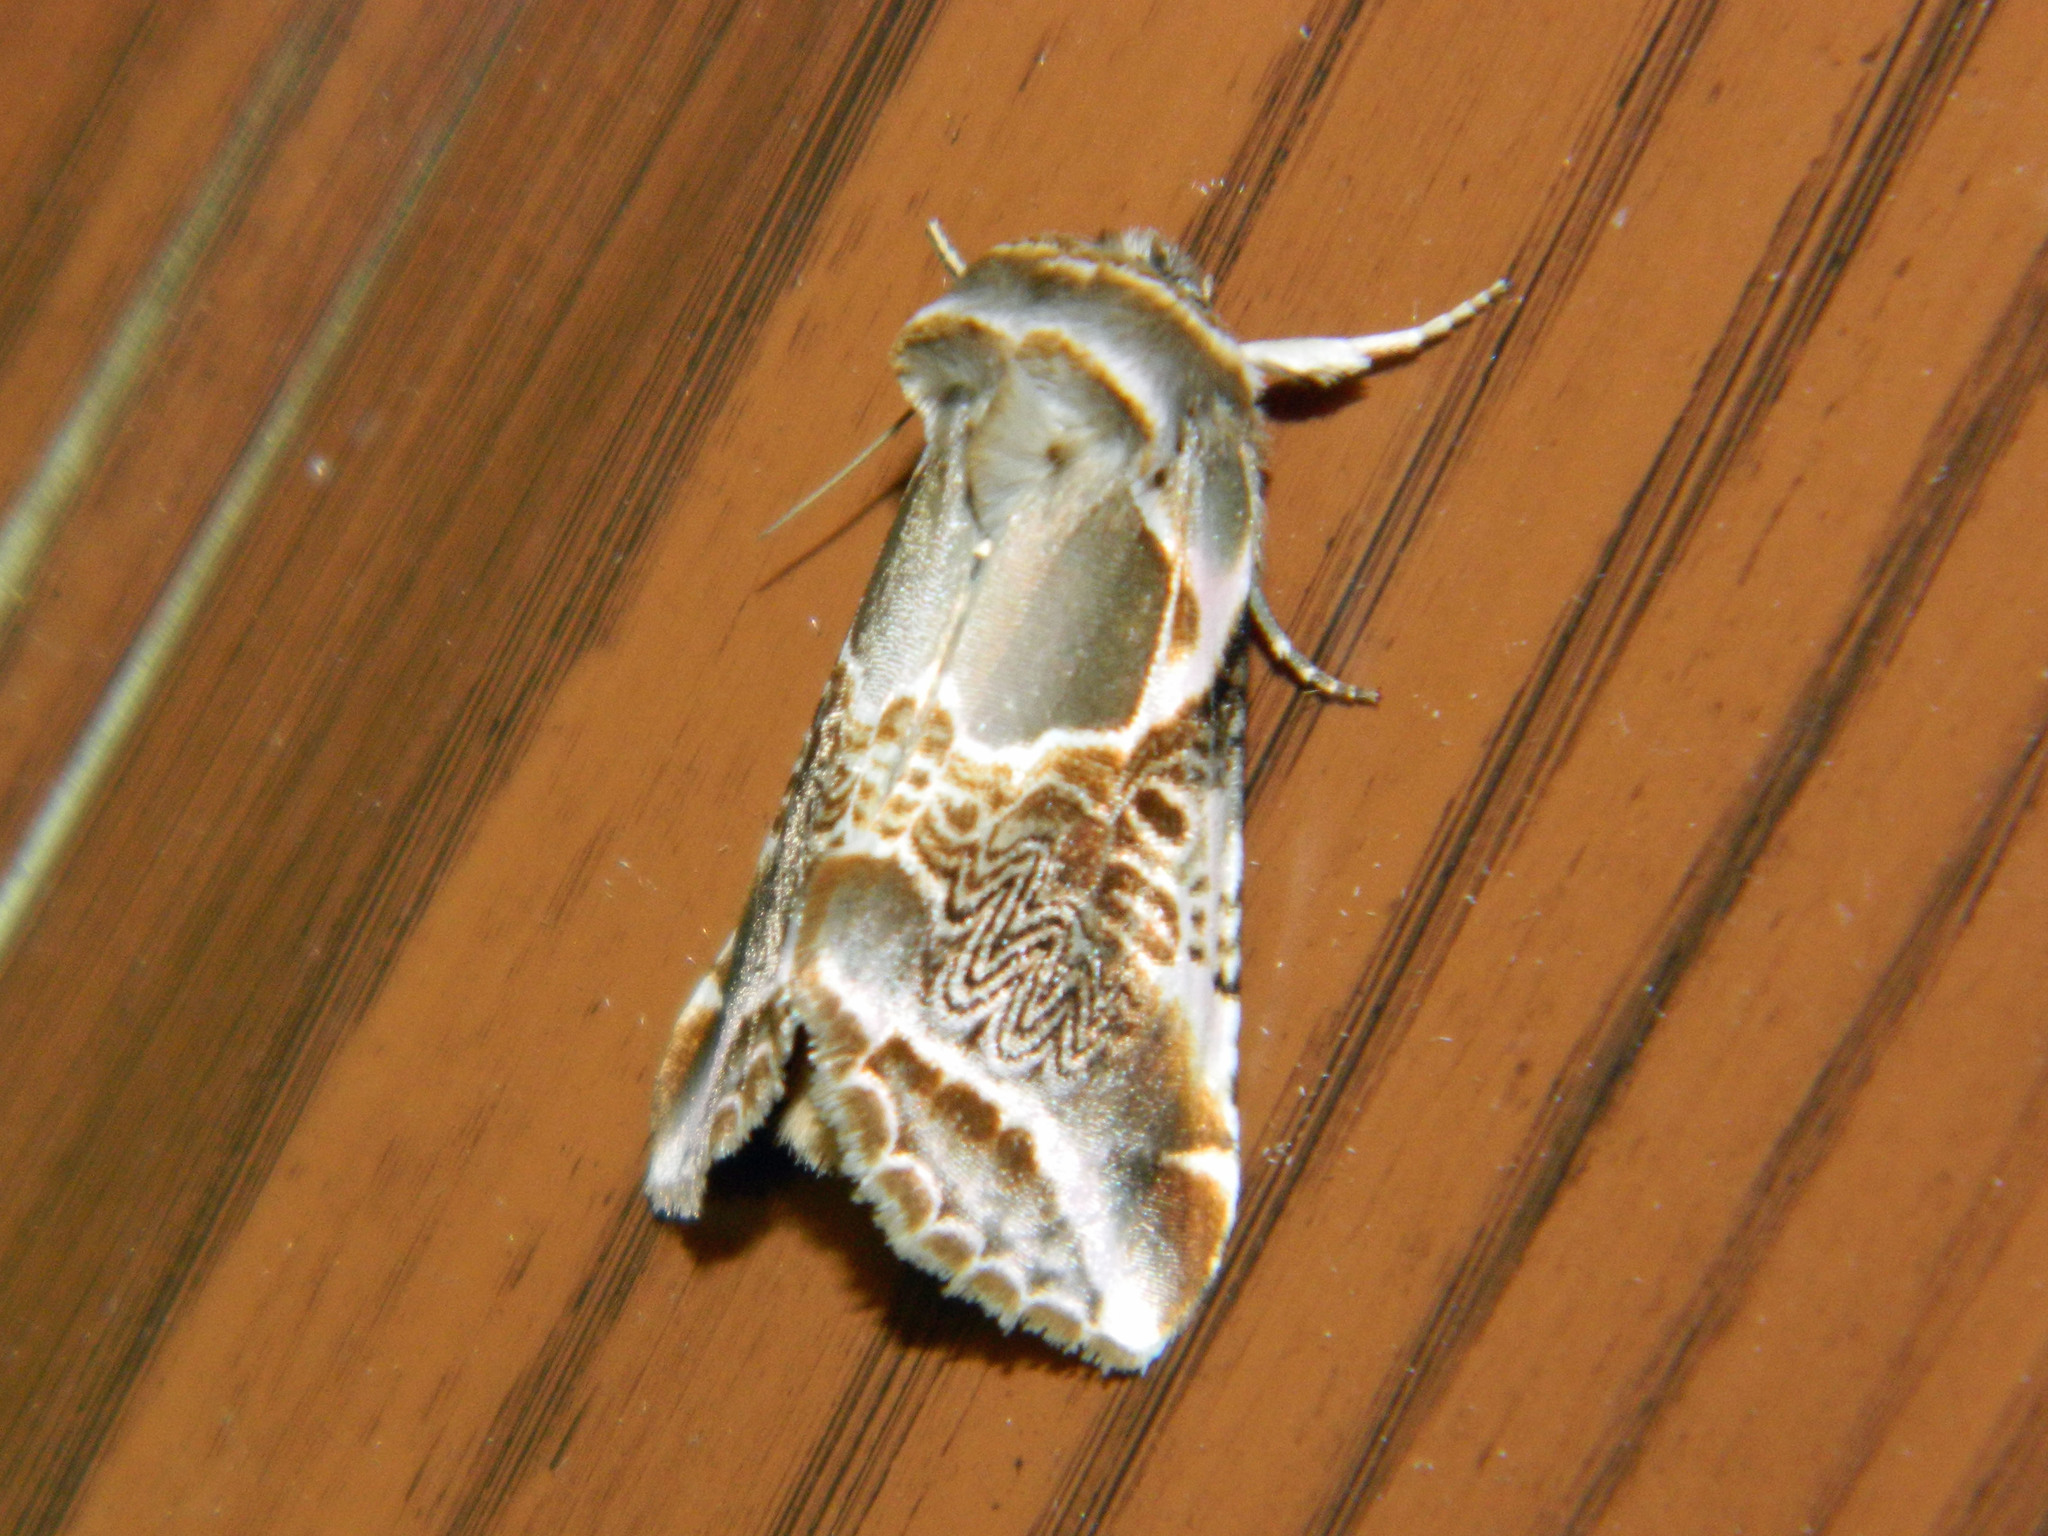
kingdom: Animalia
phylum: Arthropoda
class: Insecta
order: Lepidoptera
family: Drepanidae
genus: Habrosyne
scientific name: Habrosyne scripta
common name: Lettered habrosyne moth
